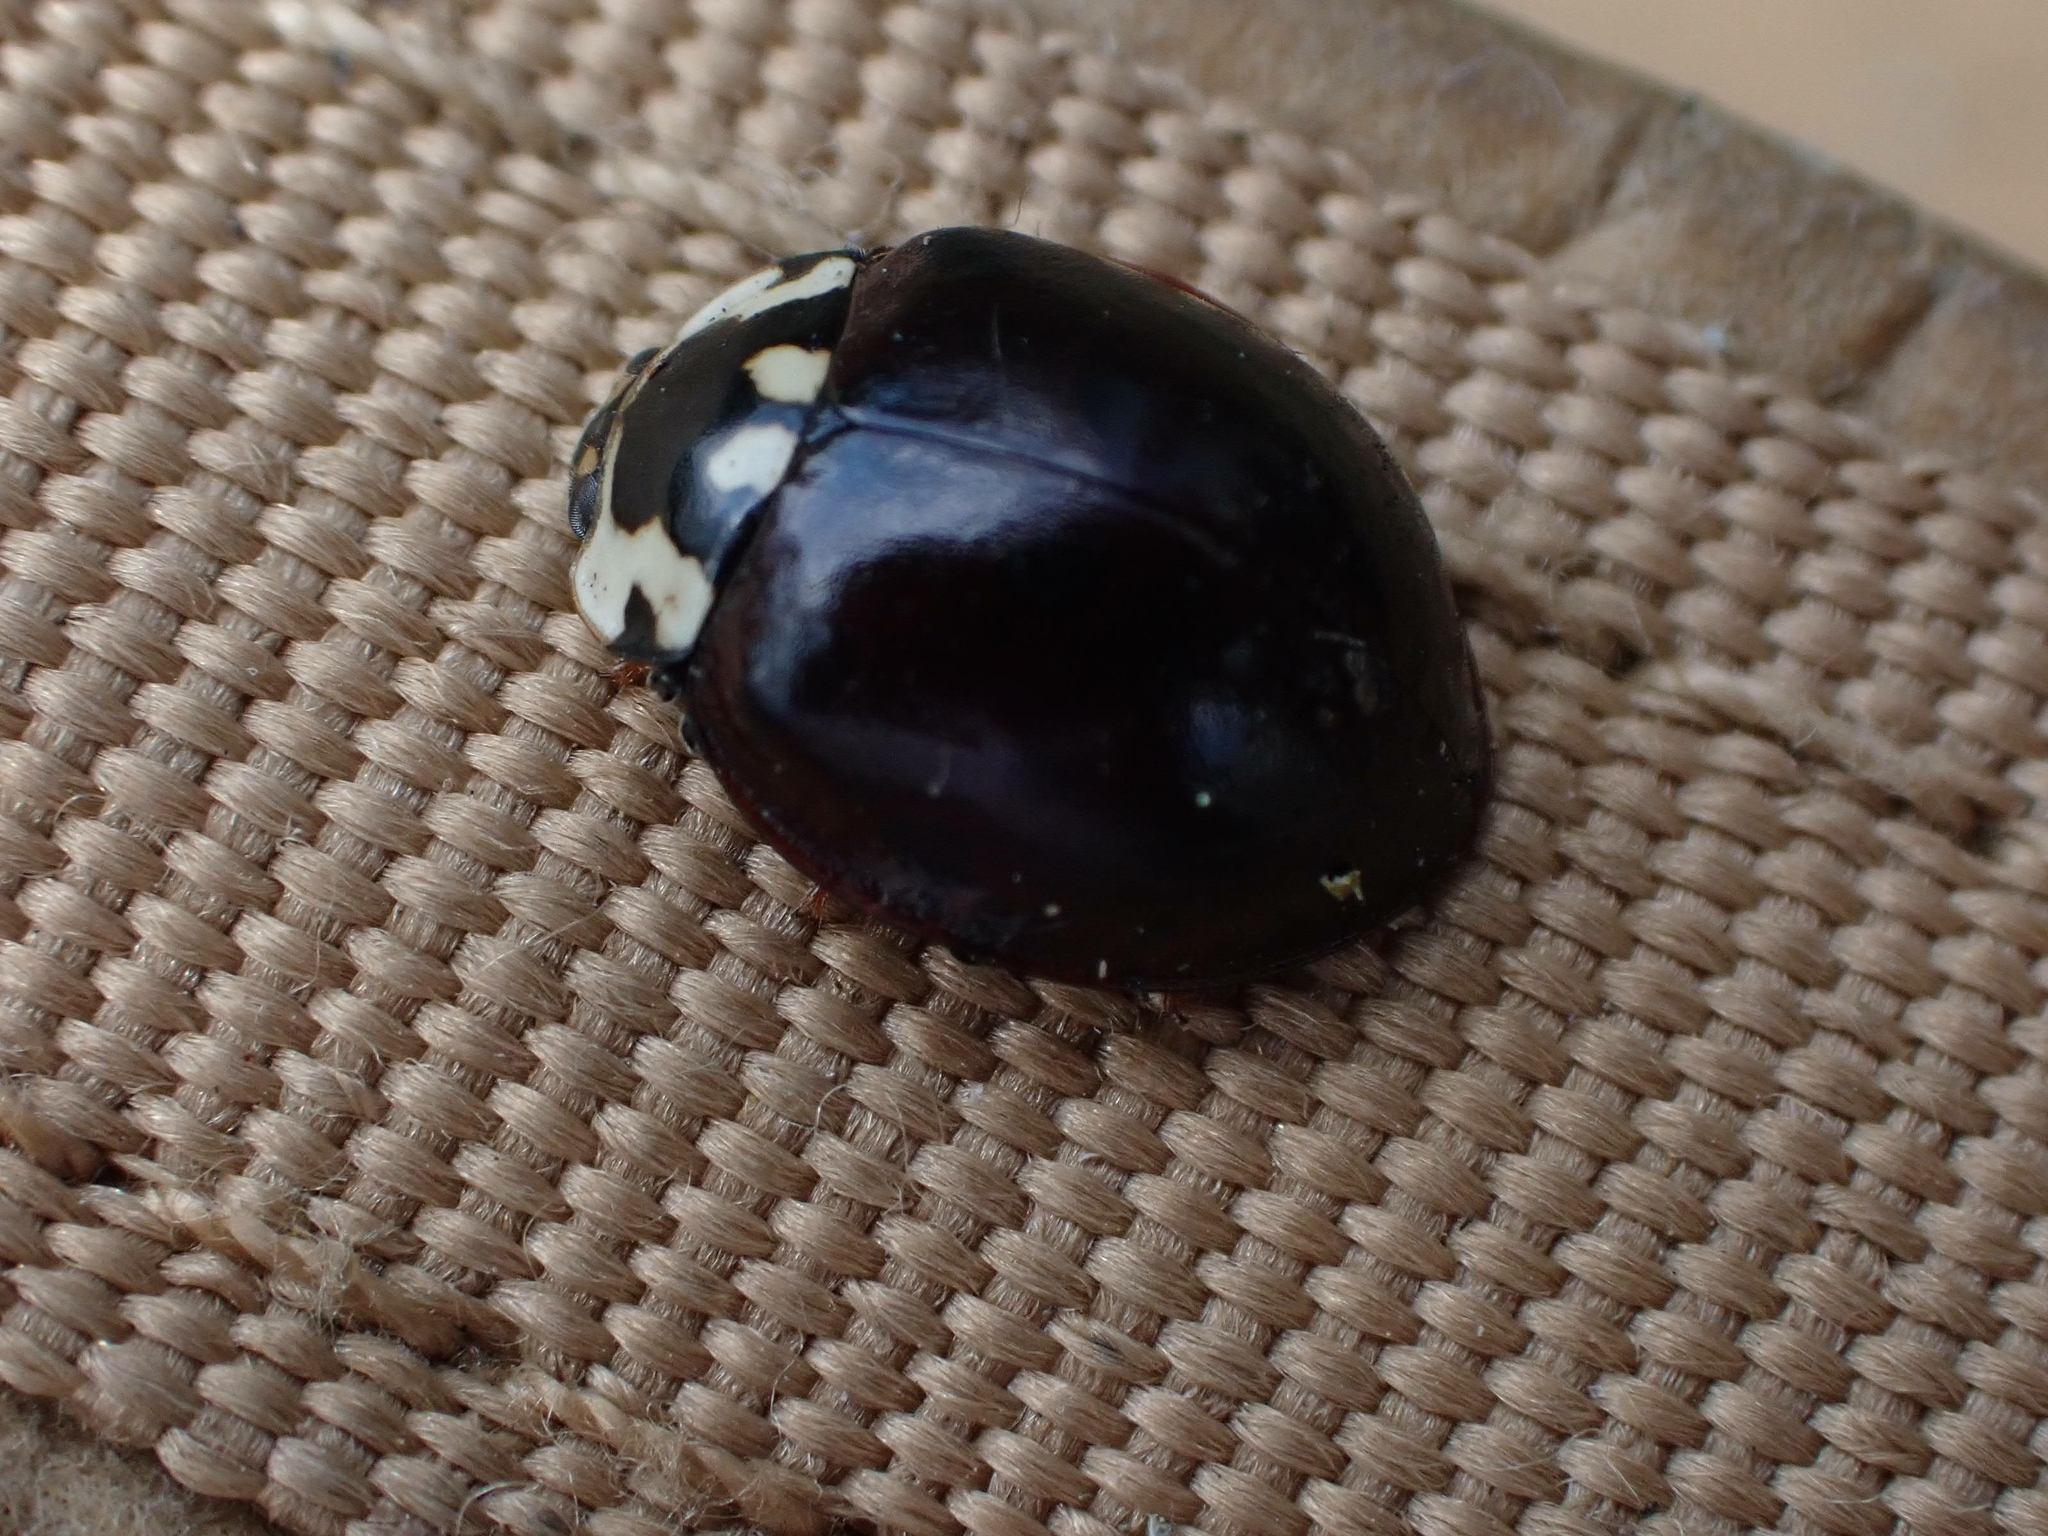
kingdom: Animalia
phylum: Arthropoda
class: Insecta
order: Coleoptera
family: Coccinellidae
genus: Anatis
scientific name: Anatis labiculata
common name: Fifteen-spotted lady beetle
